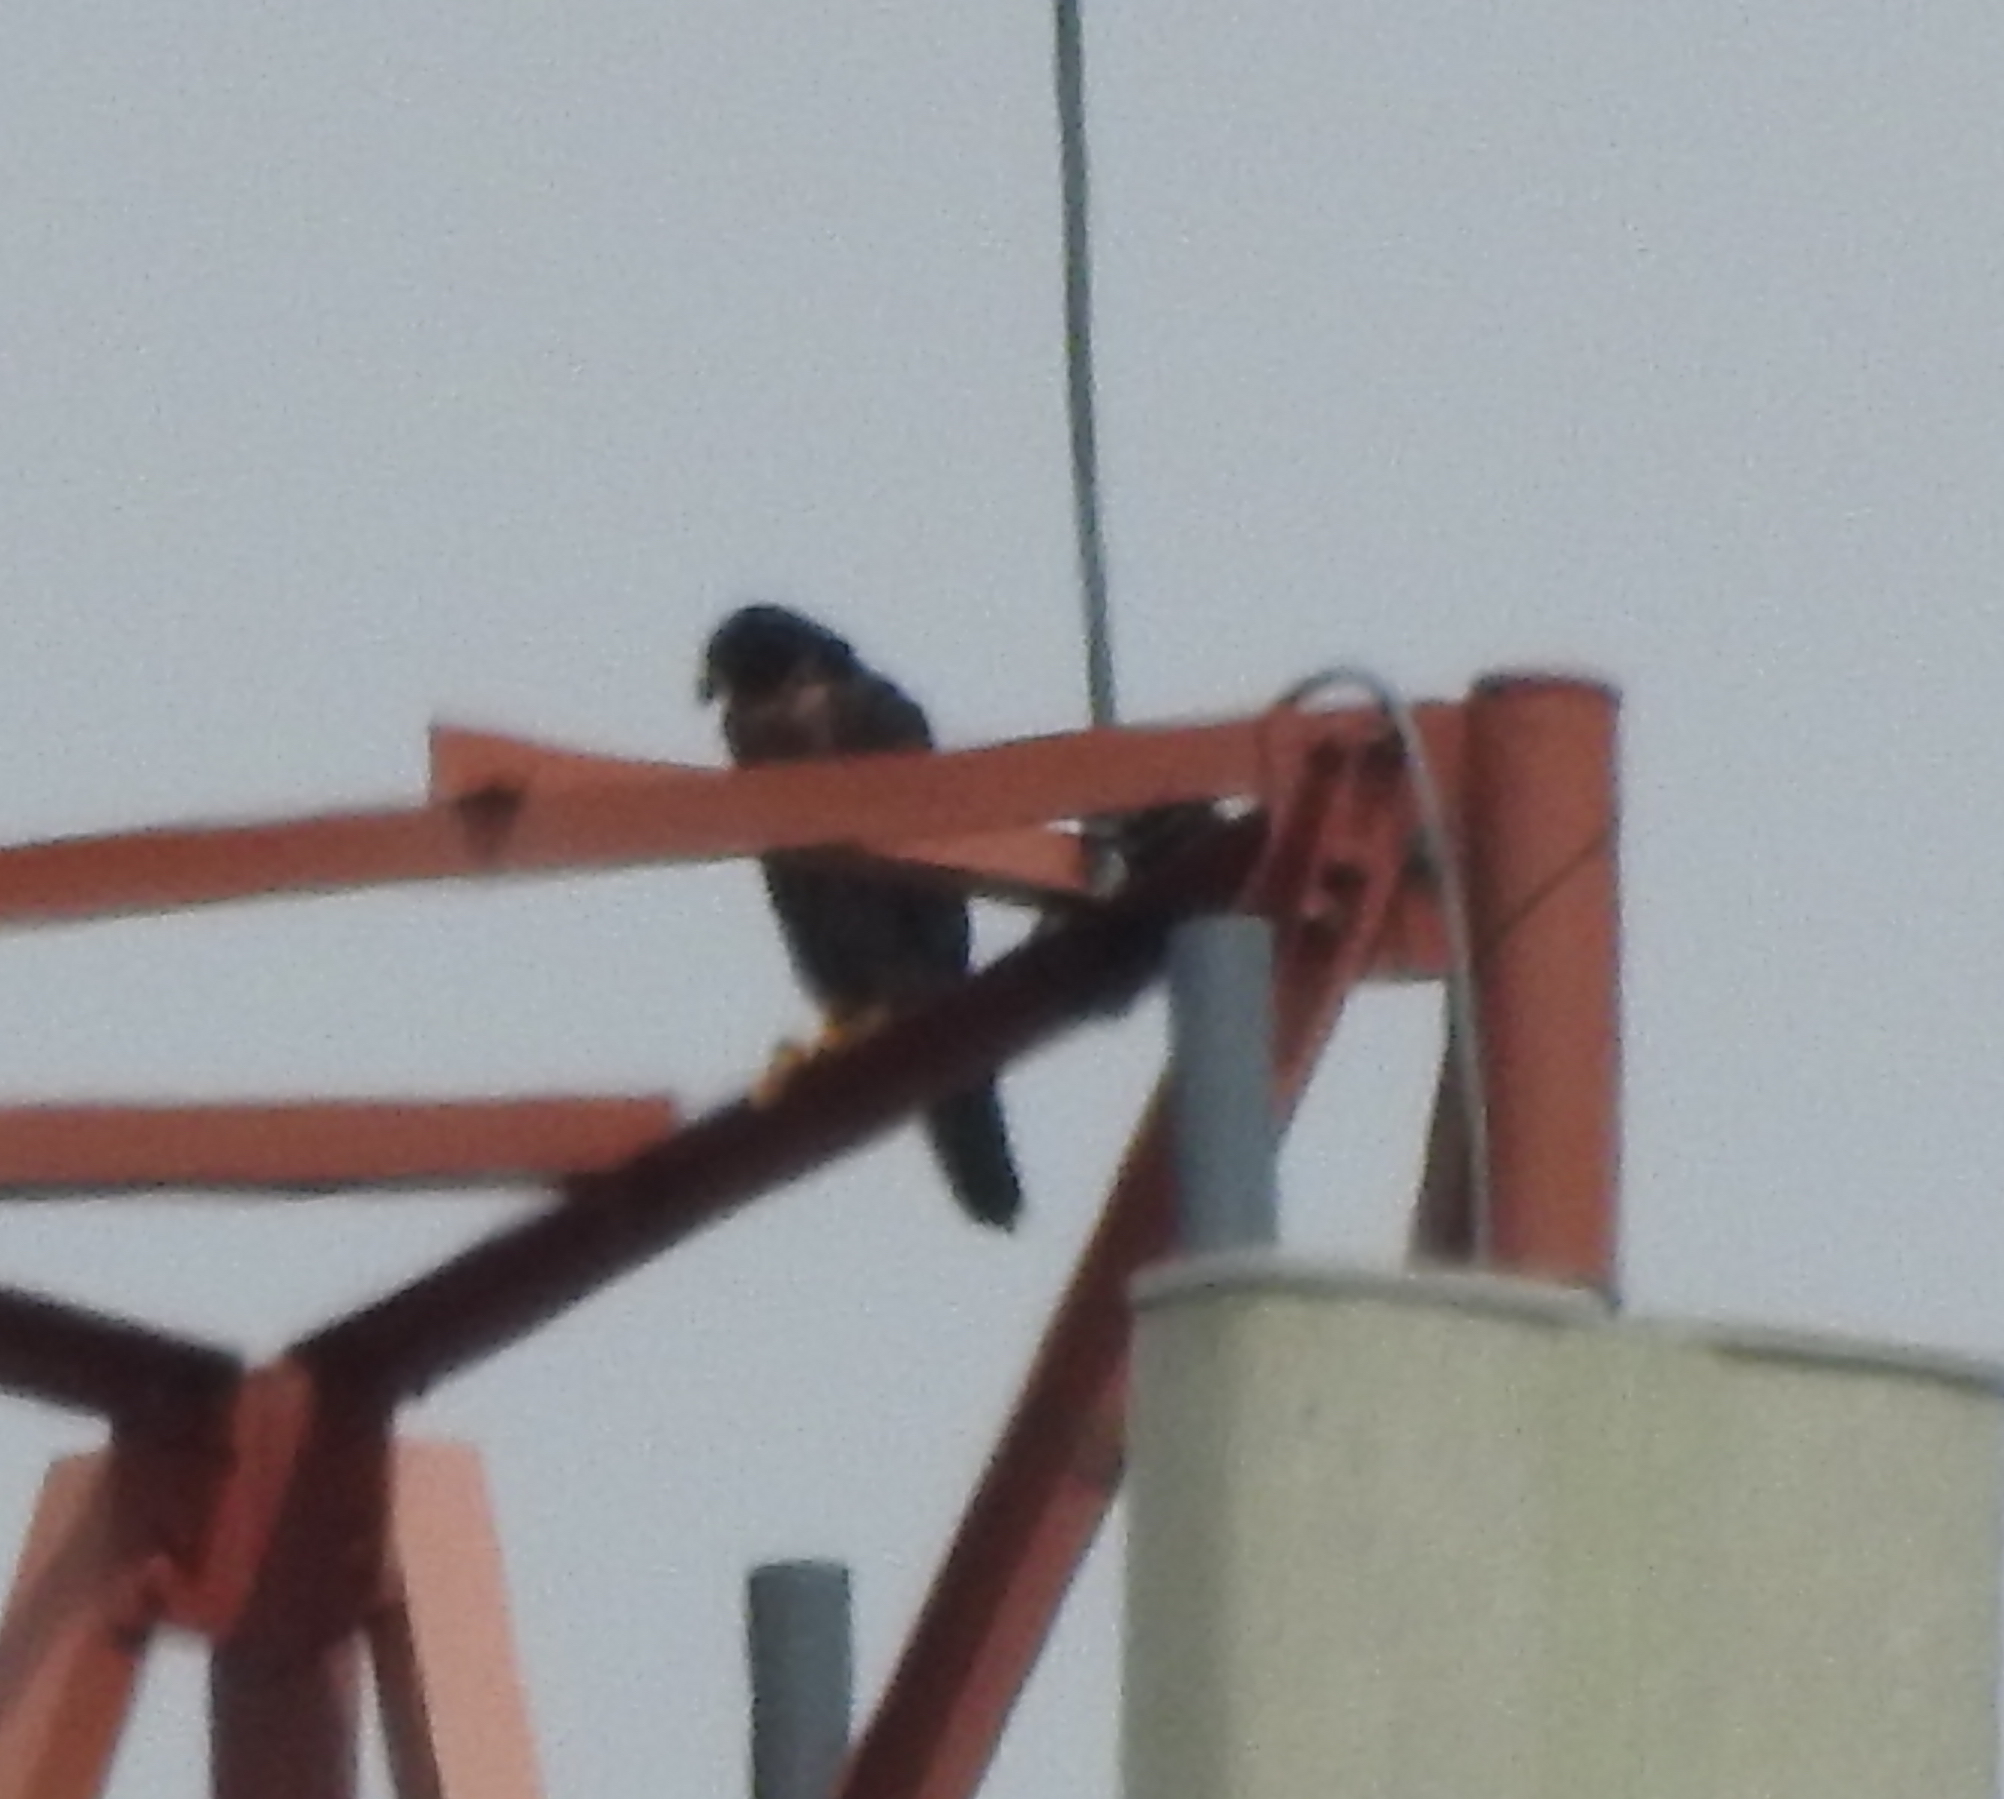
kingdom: Animalia
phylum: Chordata
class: Aves
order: Falconiformes
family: Falconidae
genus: Falco
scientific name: Falco peregrinus
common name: Peregrine falcon
